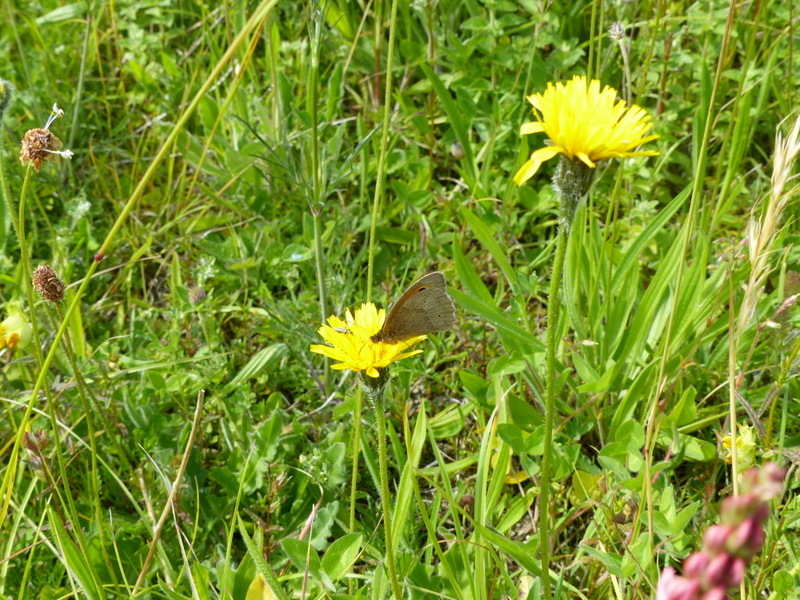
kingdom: Animalia
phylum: Arthropoda
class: Insecta
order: Lepidoptera
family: Nymphalidae
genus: Maniola
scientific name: Maniola jurtina
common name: Meadow brown
